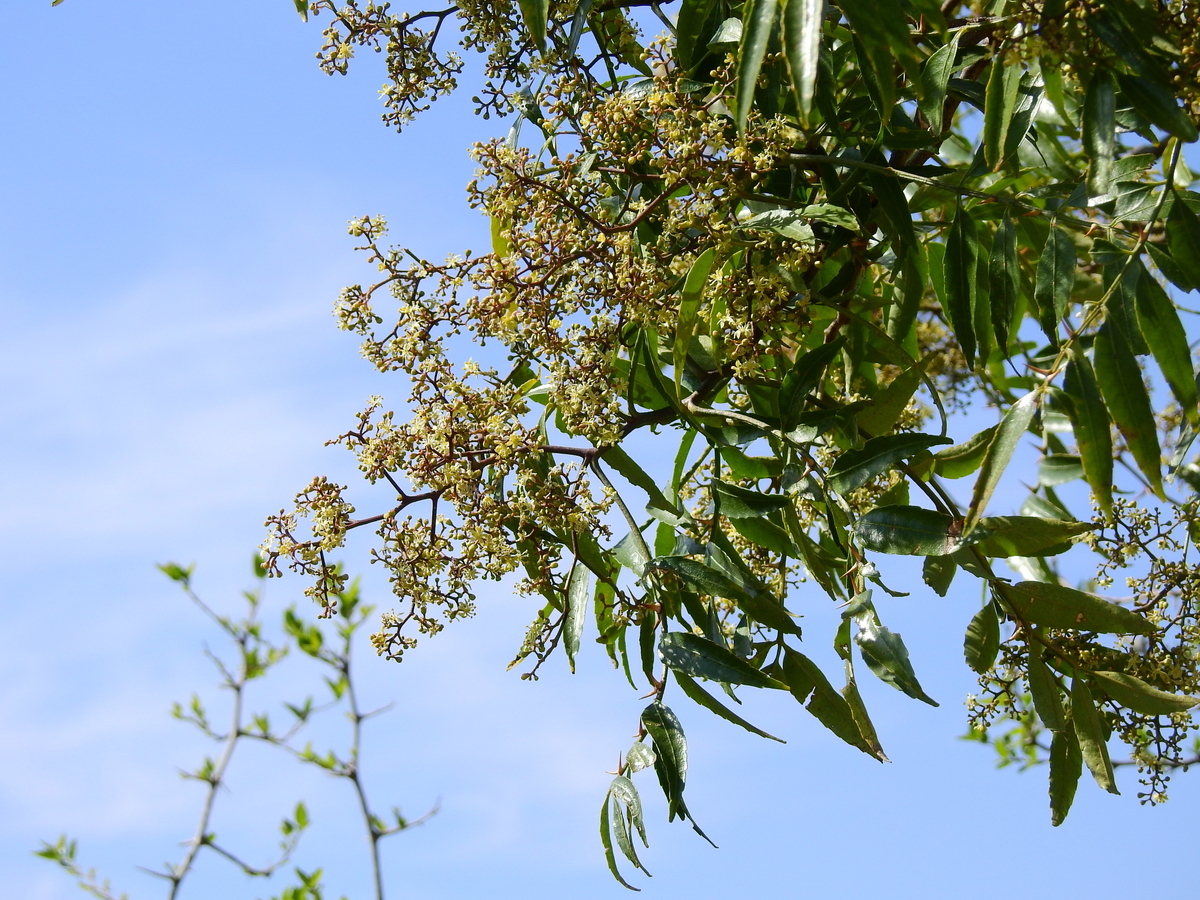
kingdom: Plantae
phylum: Tracheophyta
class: Magnoliopsida
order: Sapindales
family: Rutaceae
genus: Zanthoxylum
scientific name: Zanthoxylum coco
